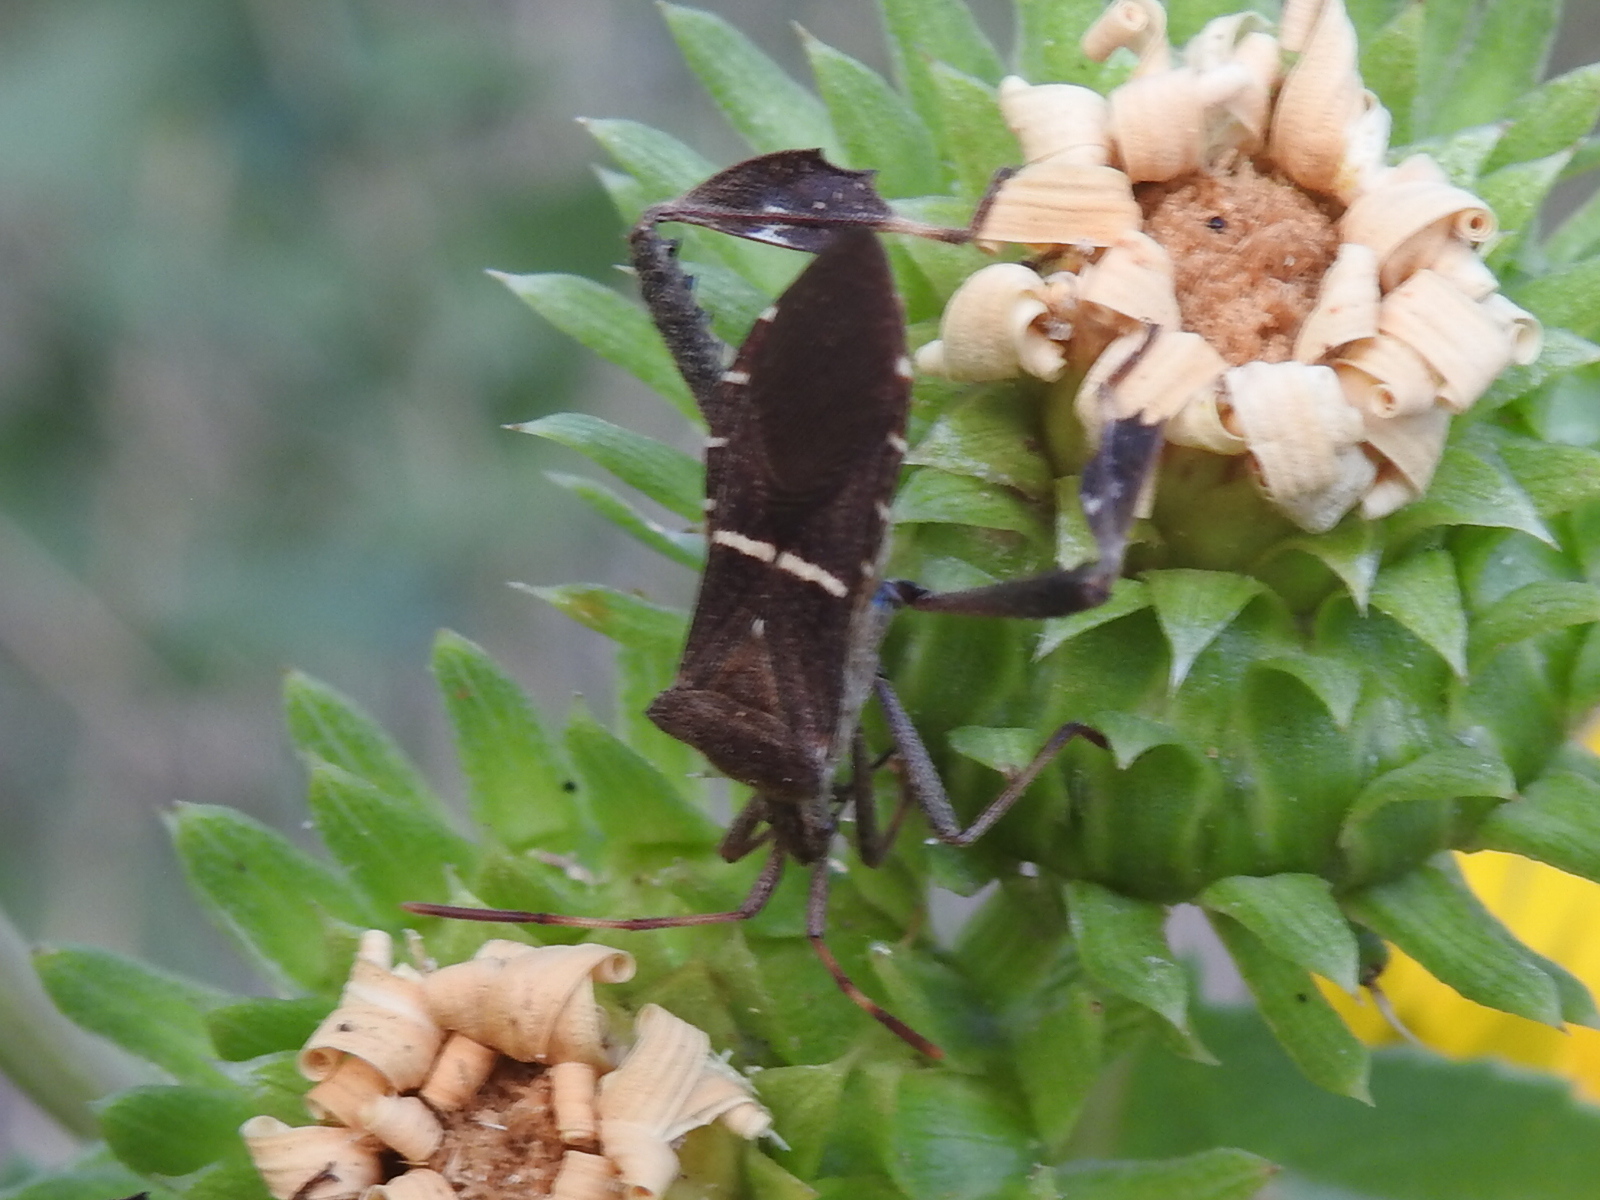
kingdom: Animalia
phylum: Arthropoda
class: Insecta
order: Hemiptera
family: Coreidae
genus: Leptoglossus
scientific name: Leptoglossus phyllopus
